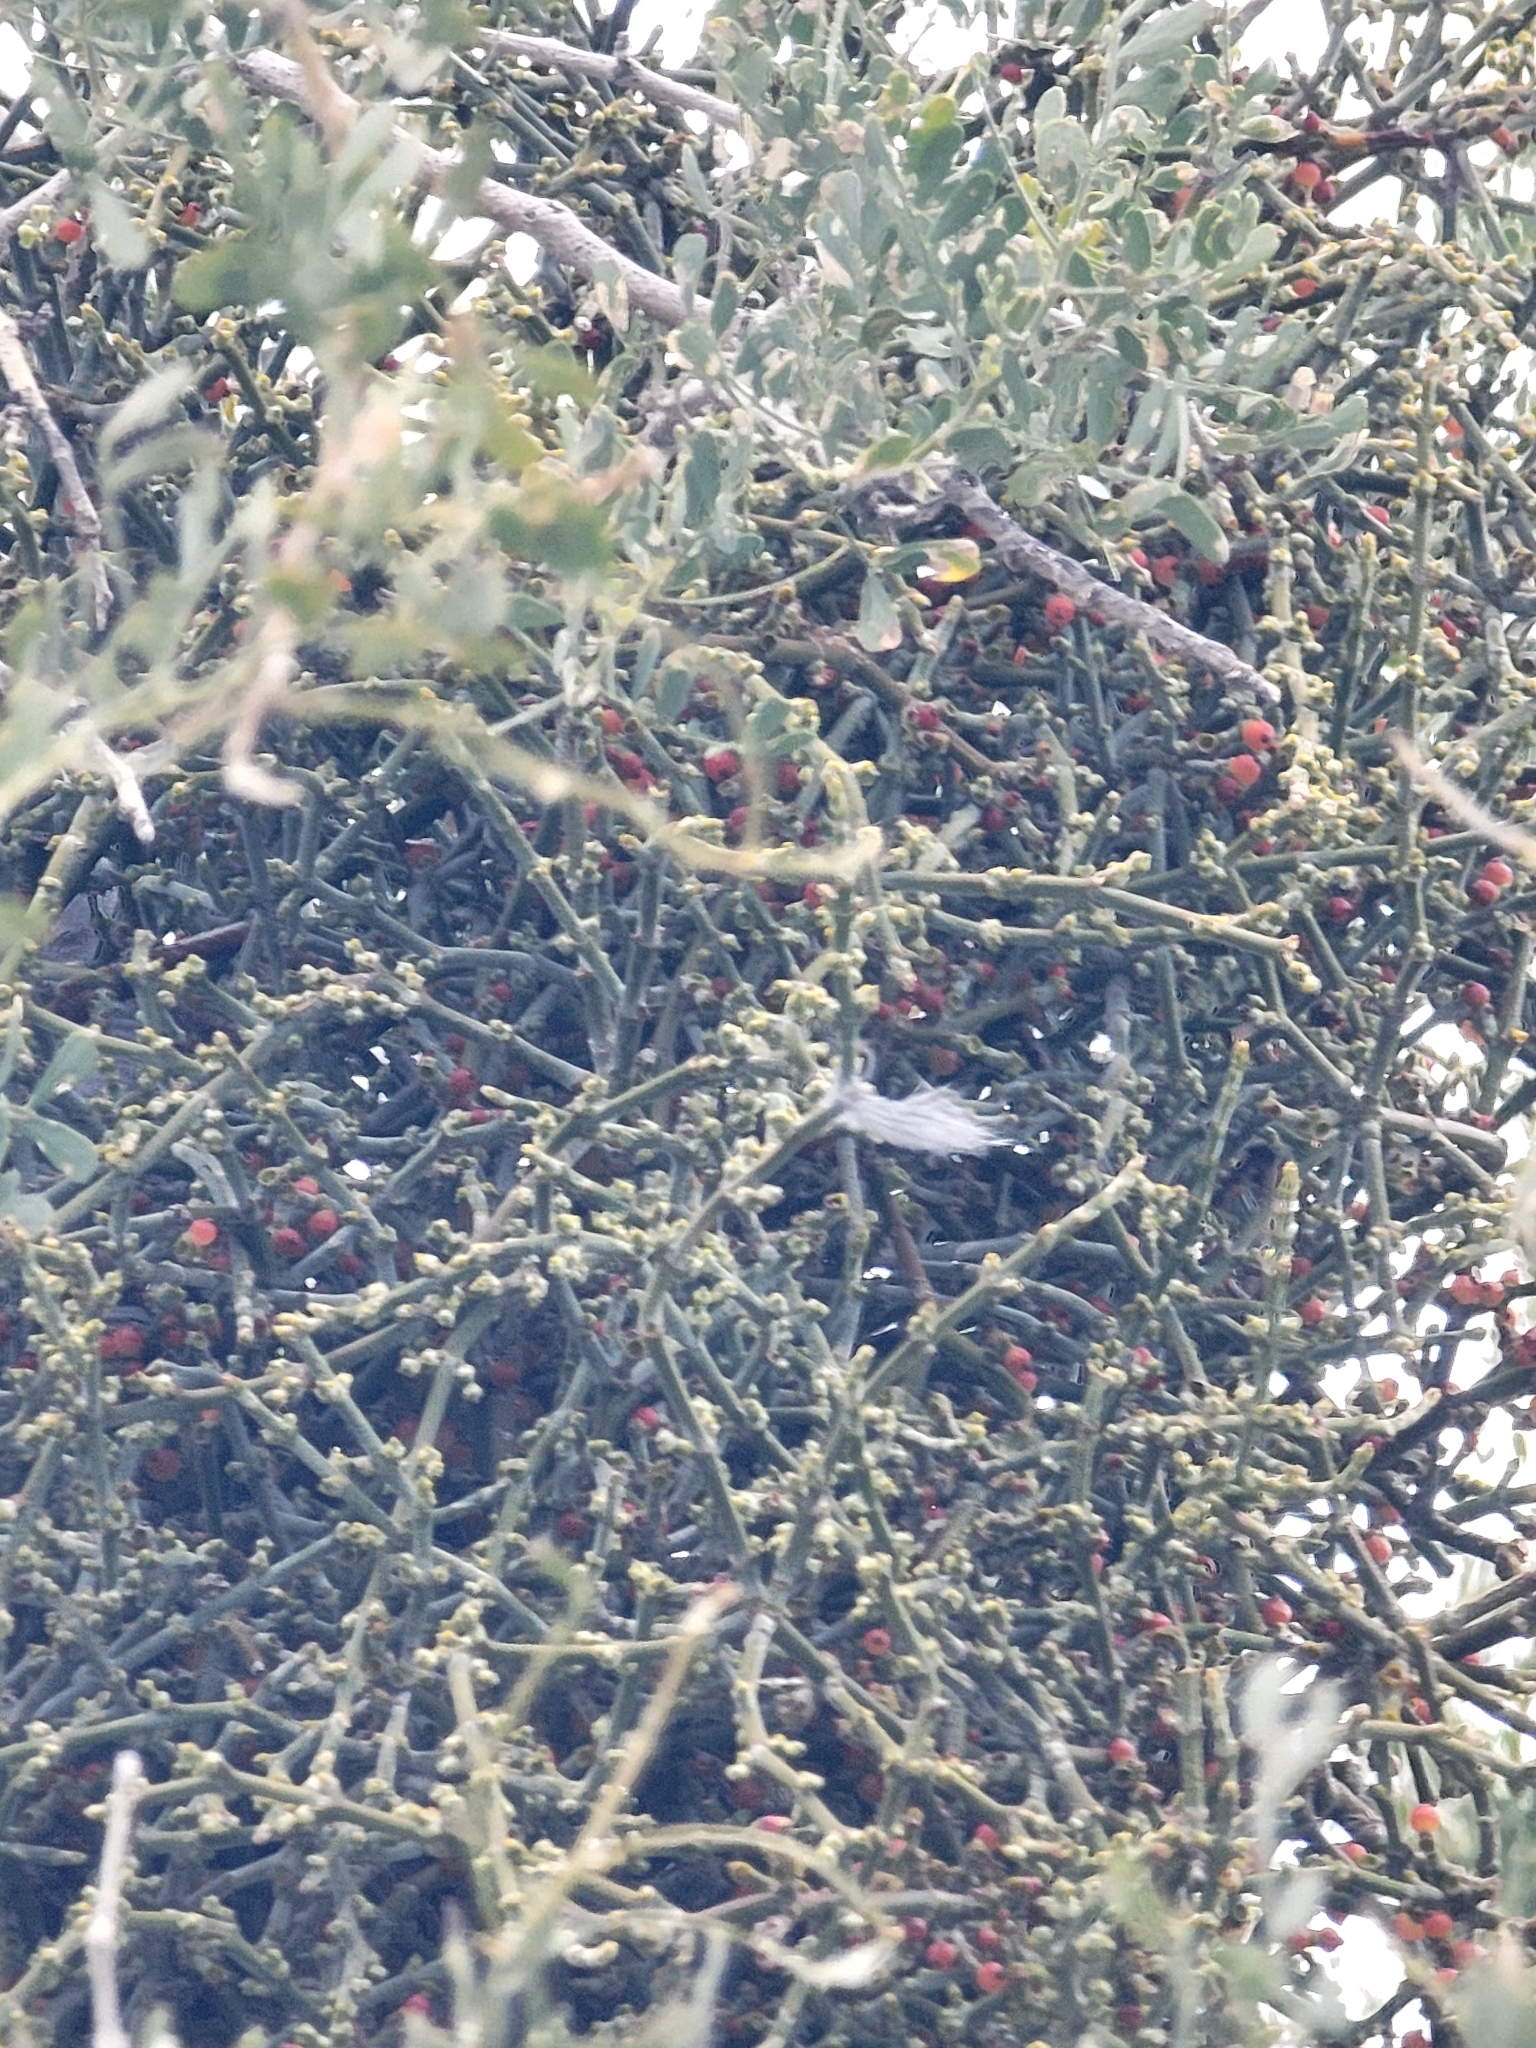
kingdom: Plantae
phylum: Tracheophyta
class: Magnoliopsida
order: Santalales
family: Viscaceae
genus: Phoradendron
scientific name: Phoradendron californicum
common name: Acacia mistletoe
